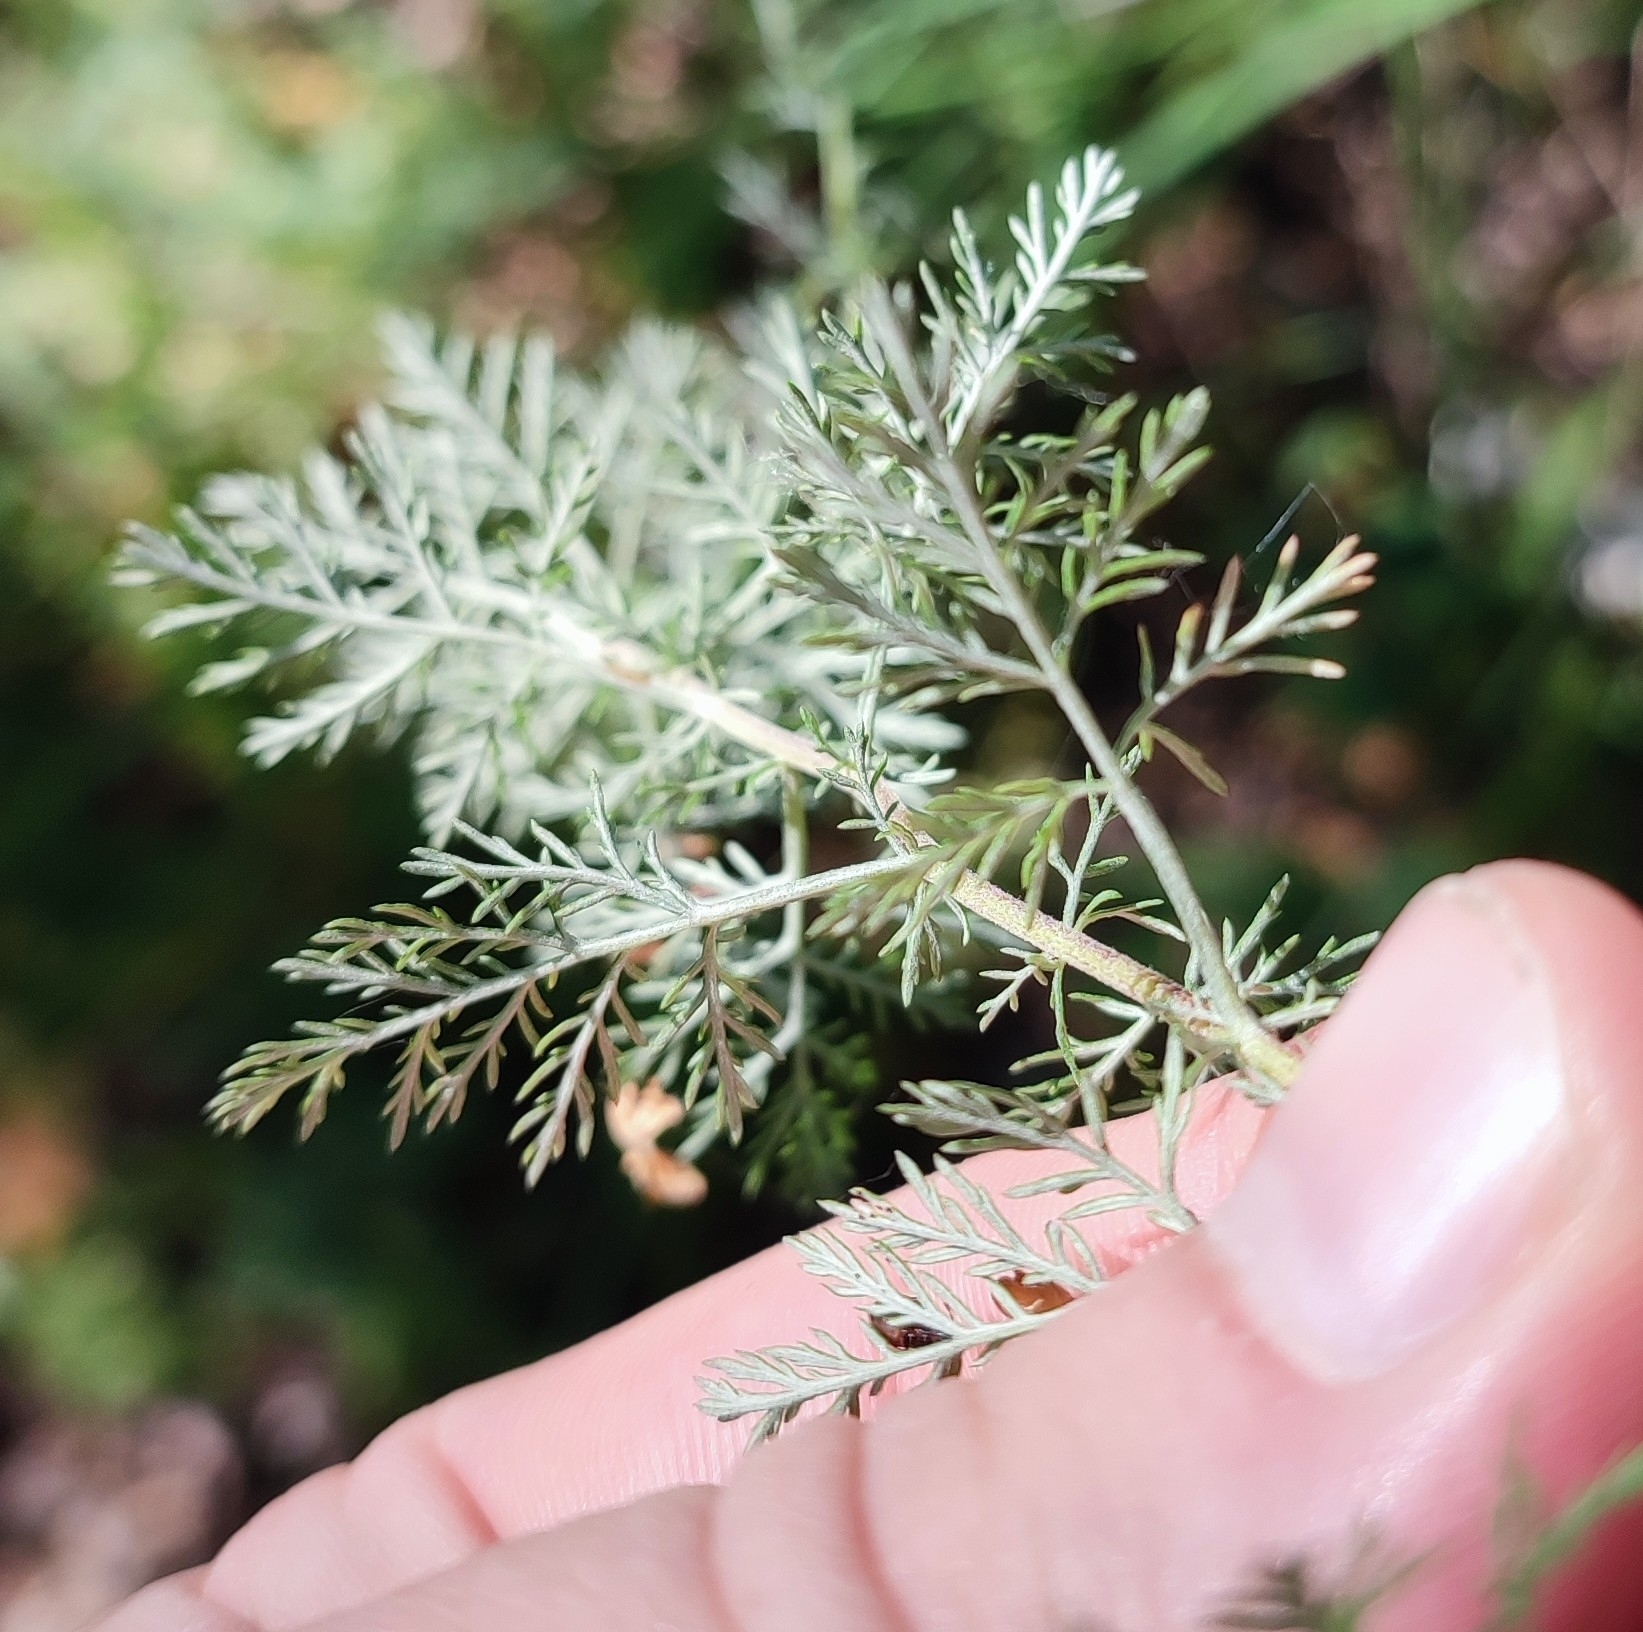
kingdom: Plantae
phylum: Tracheophyta
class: Magnoliopsida
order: Asterales
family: Asteraceae
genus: Artemisia
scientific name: Artemisia pontica
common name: Roman wormwood
